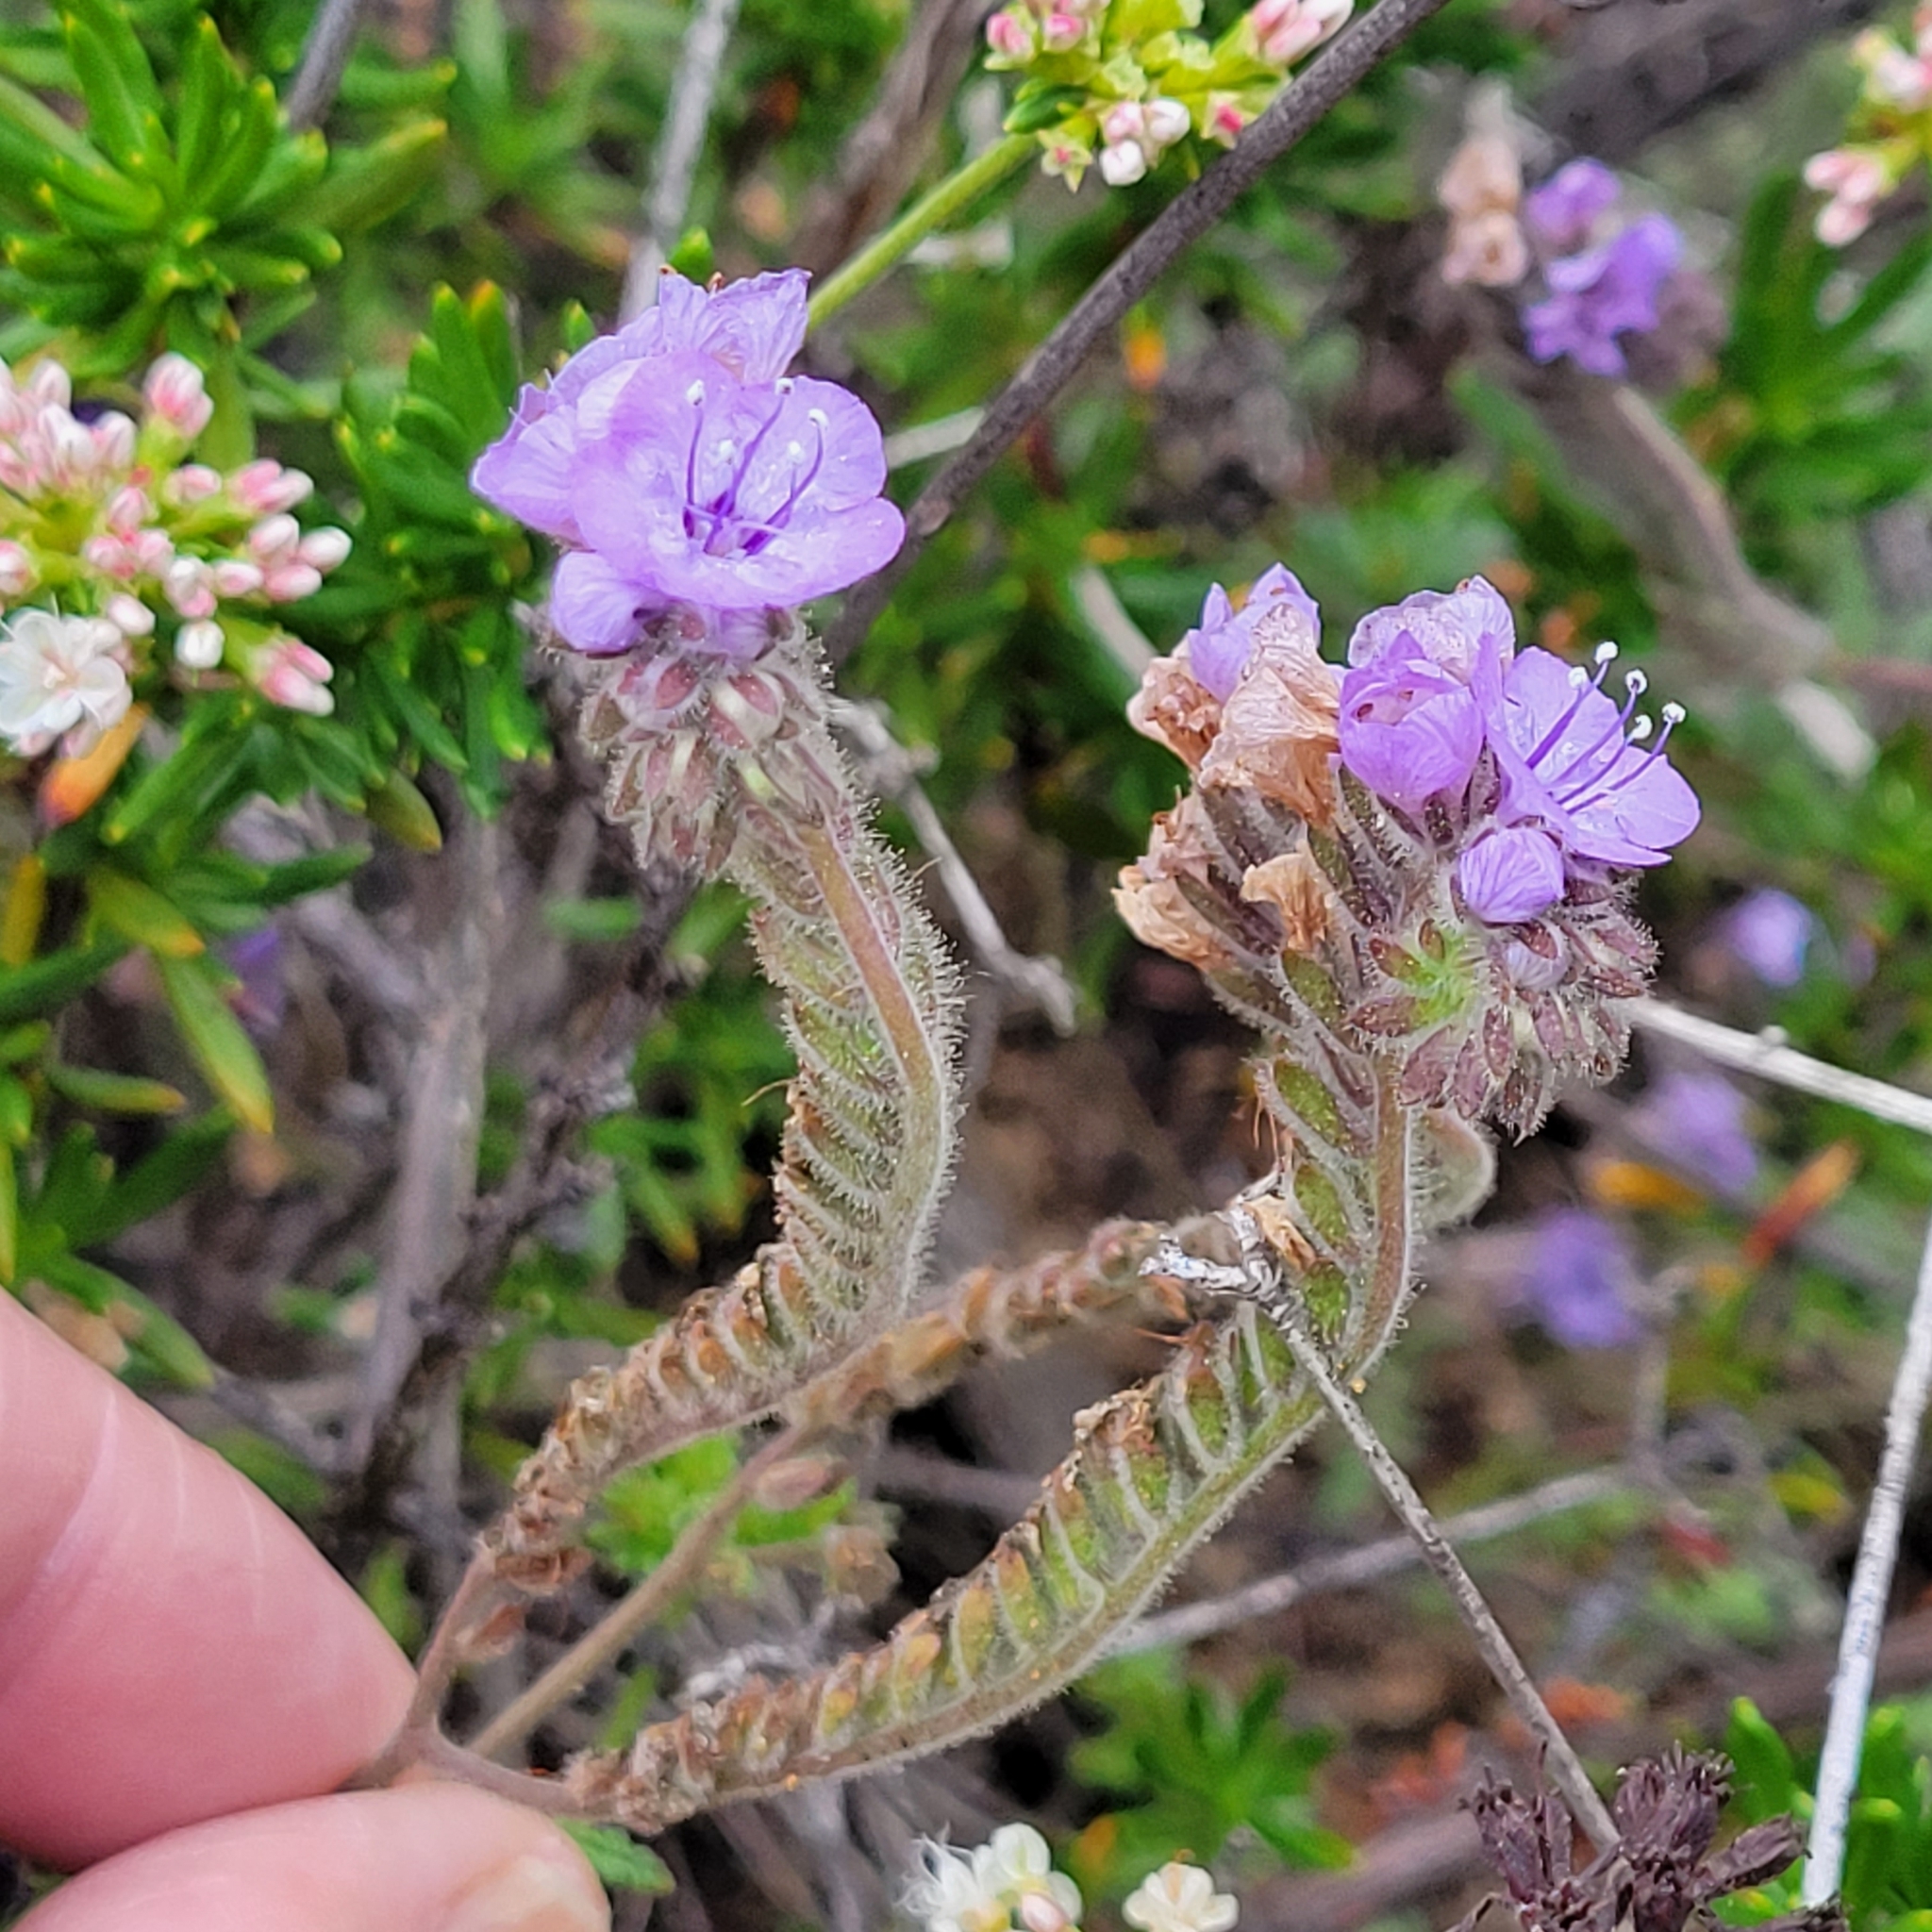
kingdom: Plantae
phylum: Tracheophyta
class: Magnoliopsida
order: Boraginales
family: Hydrophyllaceae
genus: Phacelia
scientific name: Phacelia distans
